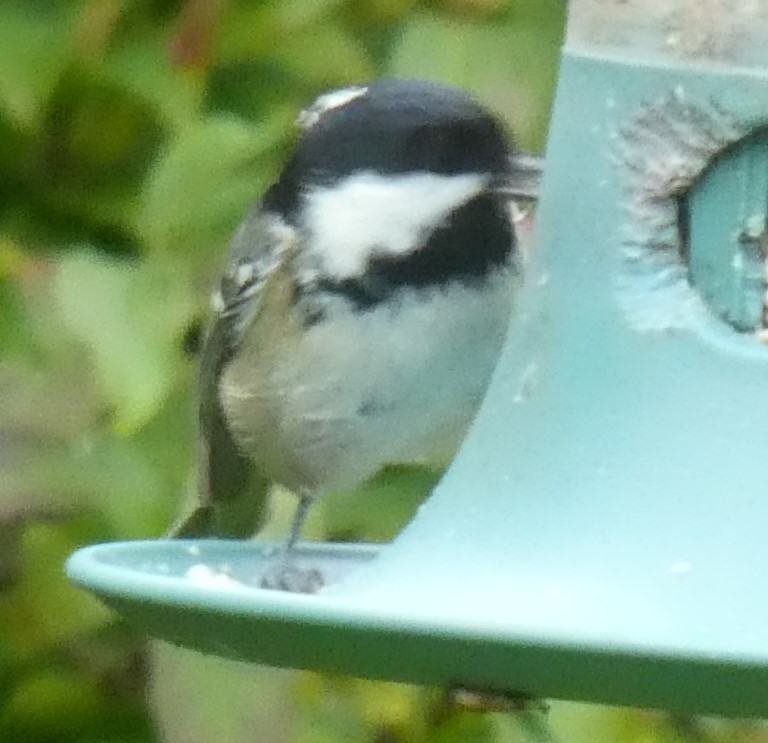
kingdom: Animalia
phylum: Chordata
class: Aves
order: Passeriformes
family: Paridae
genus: Periparus
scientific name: Periparus ater
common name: Coal tit
